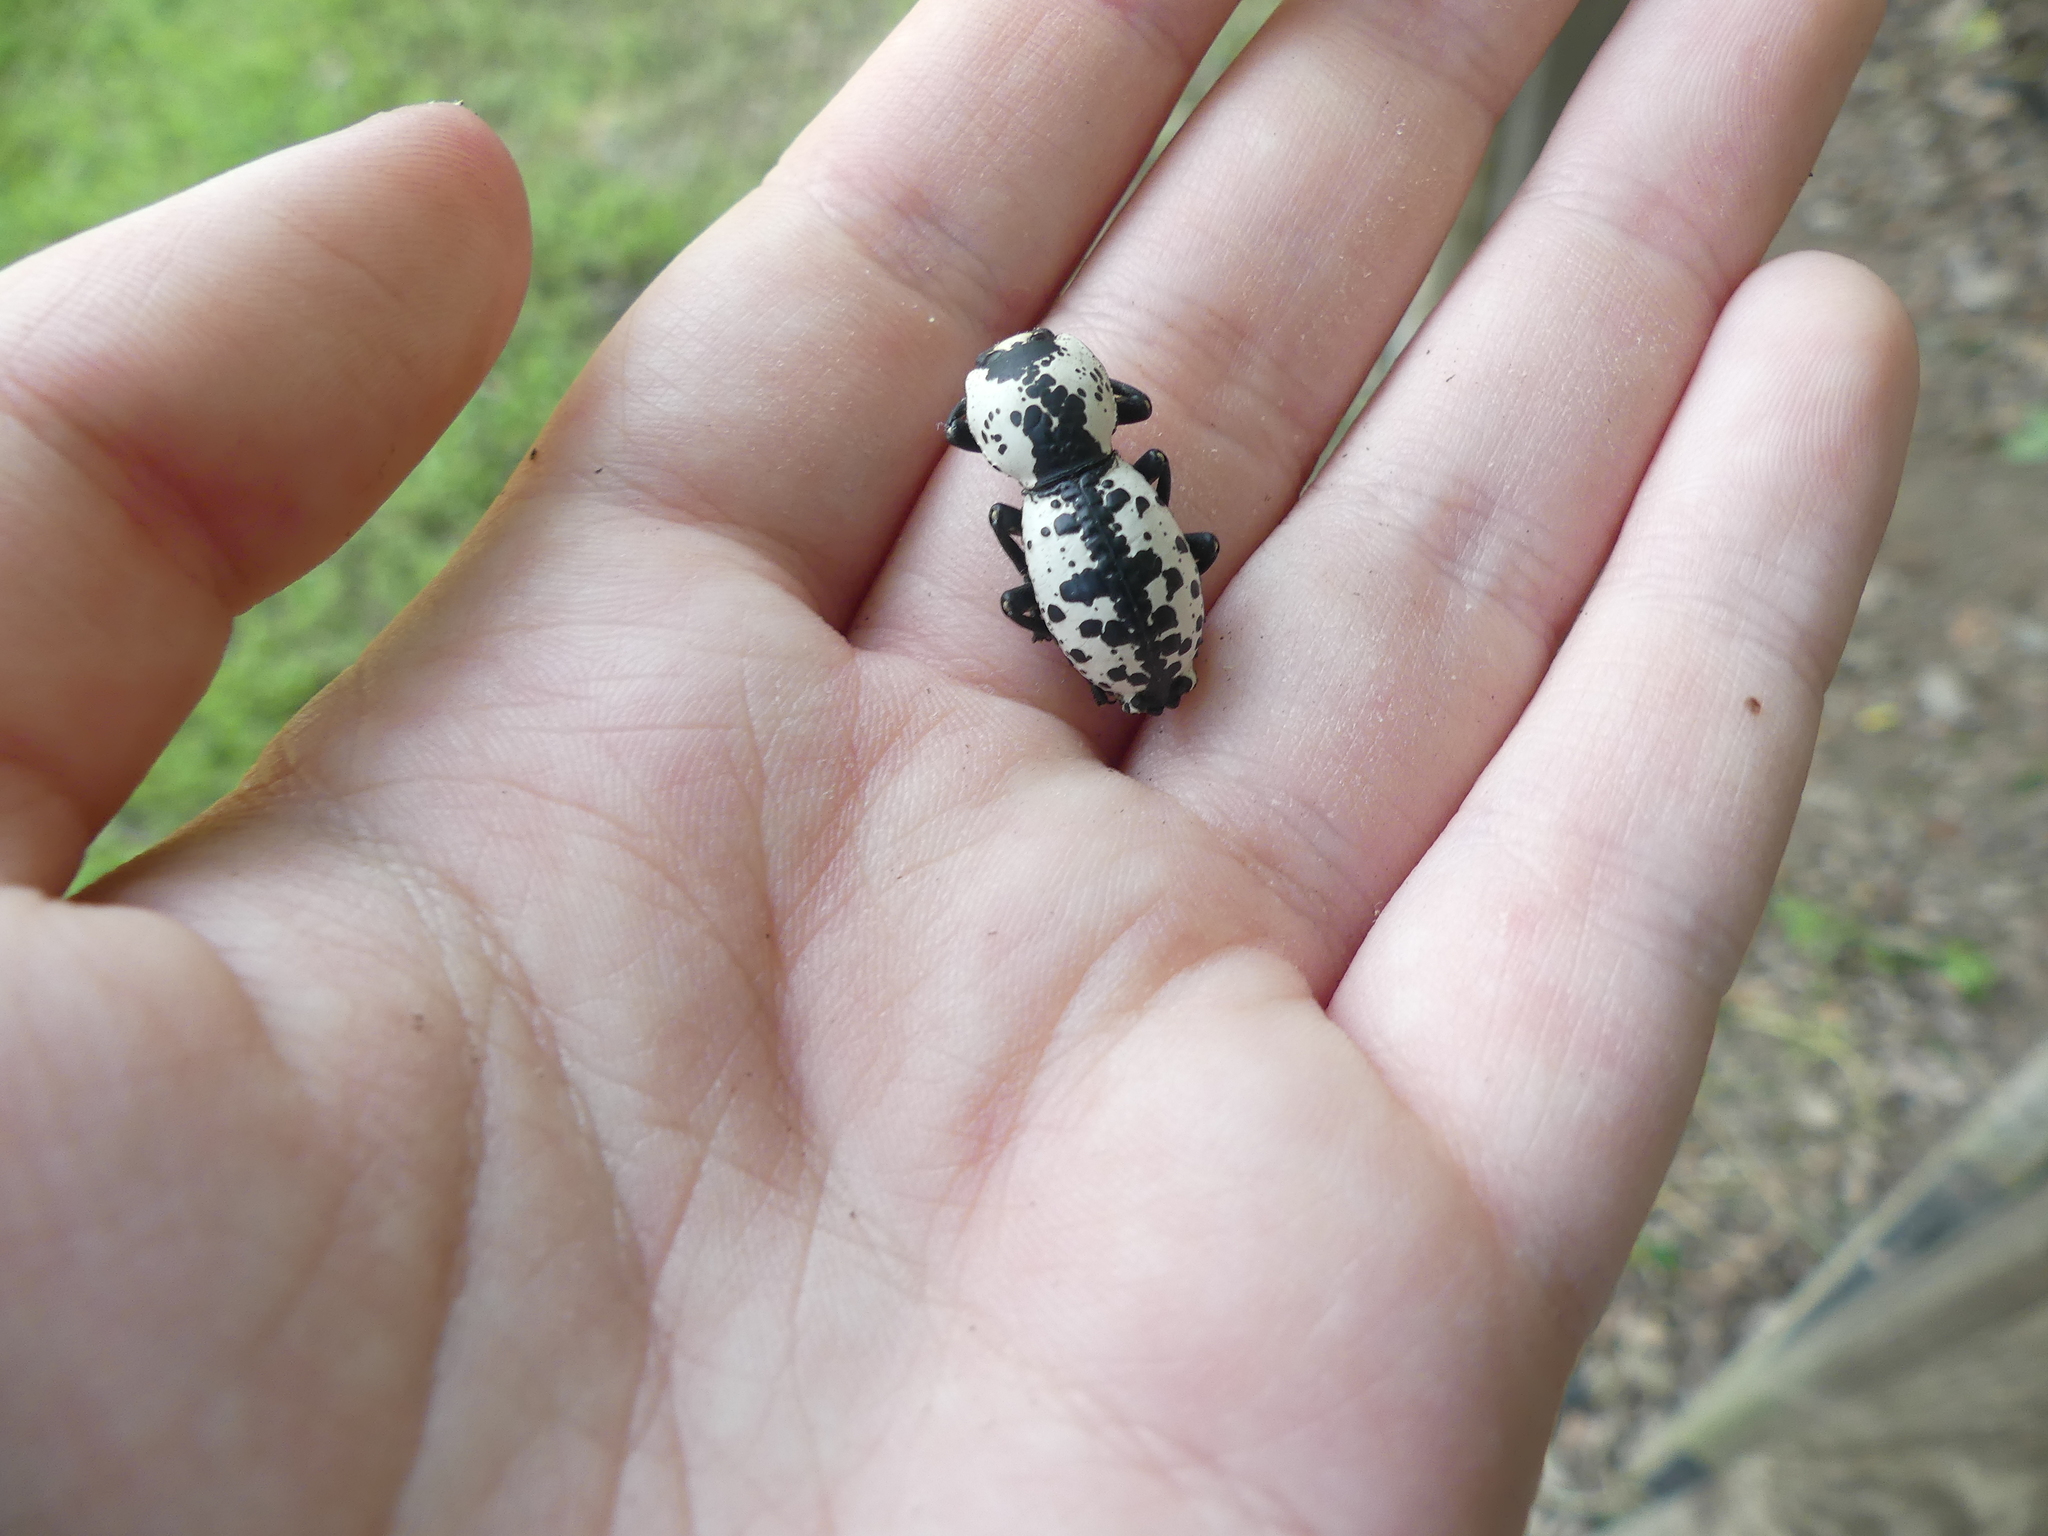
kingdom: Animalia
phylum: Arthropoda
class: Insecta
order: Coleoptera
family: Zopheridae
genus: Zopherus
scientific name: Zopherus nodulosus
